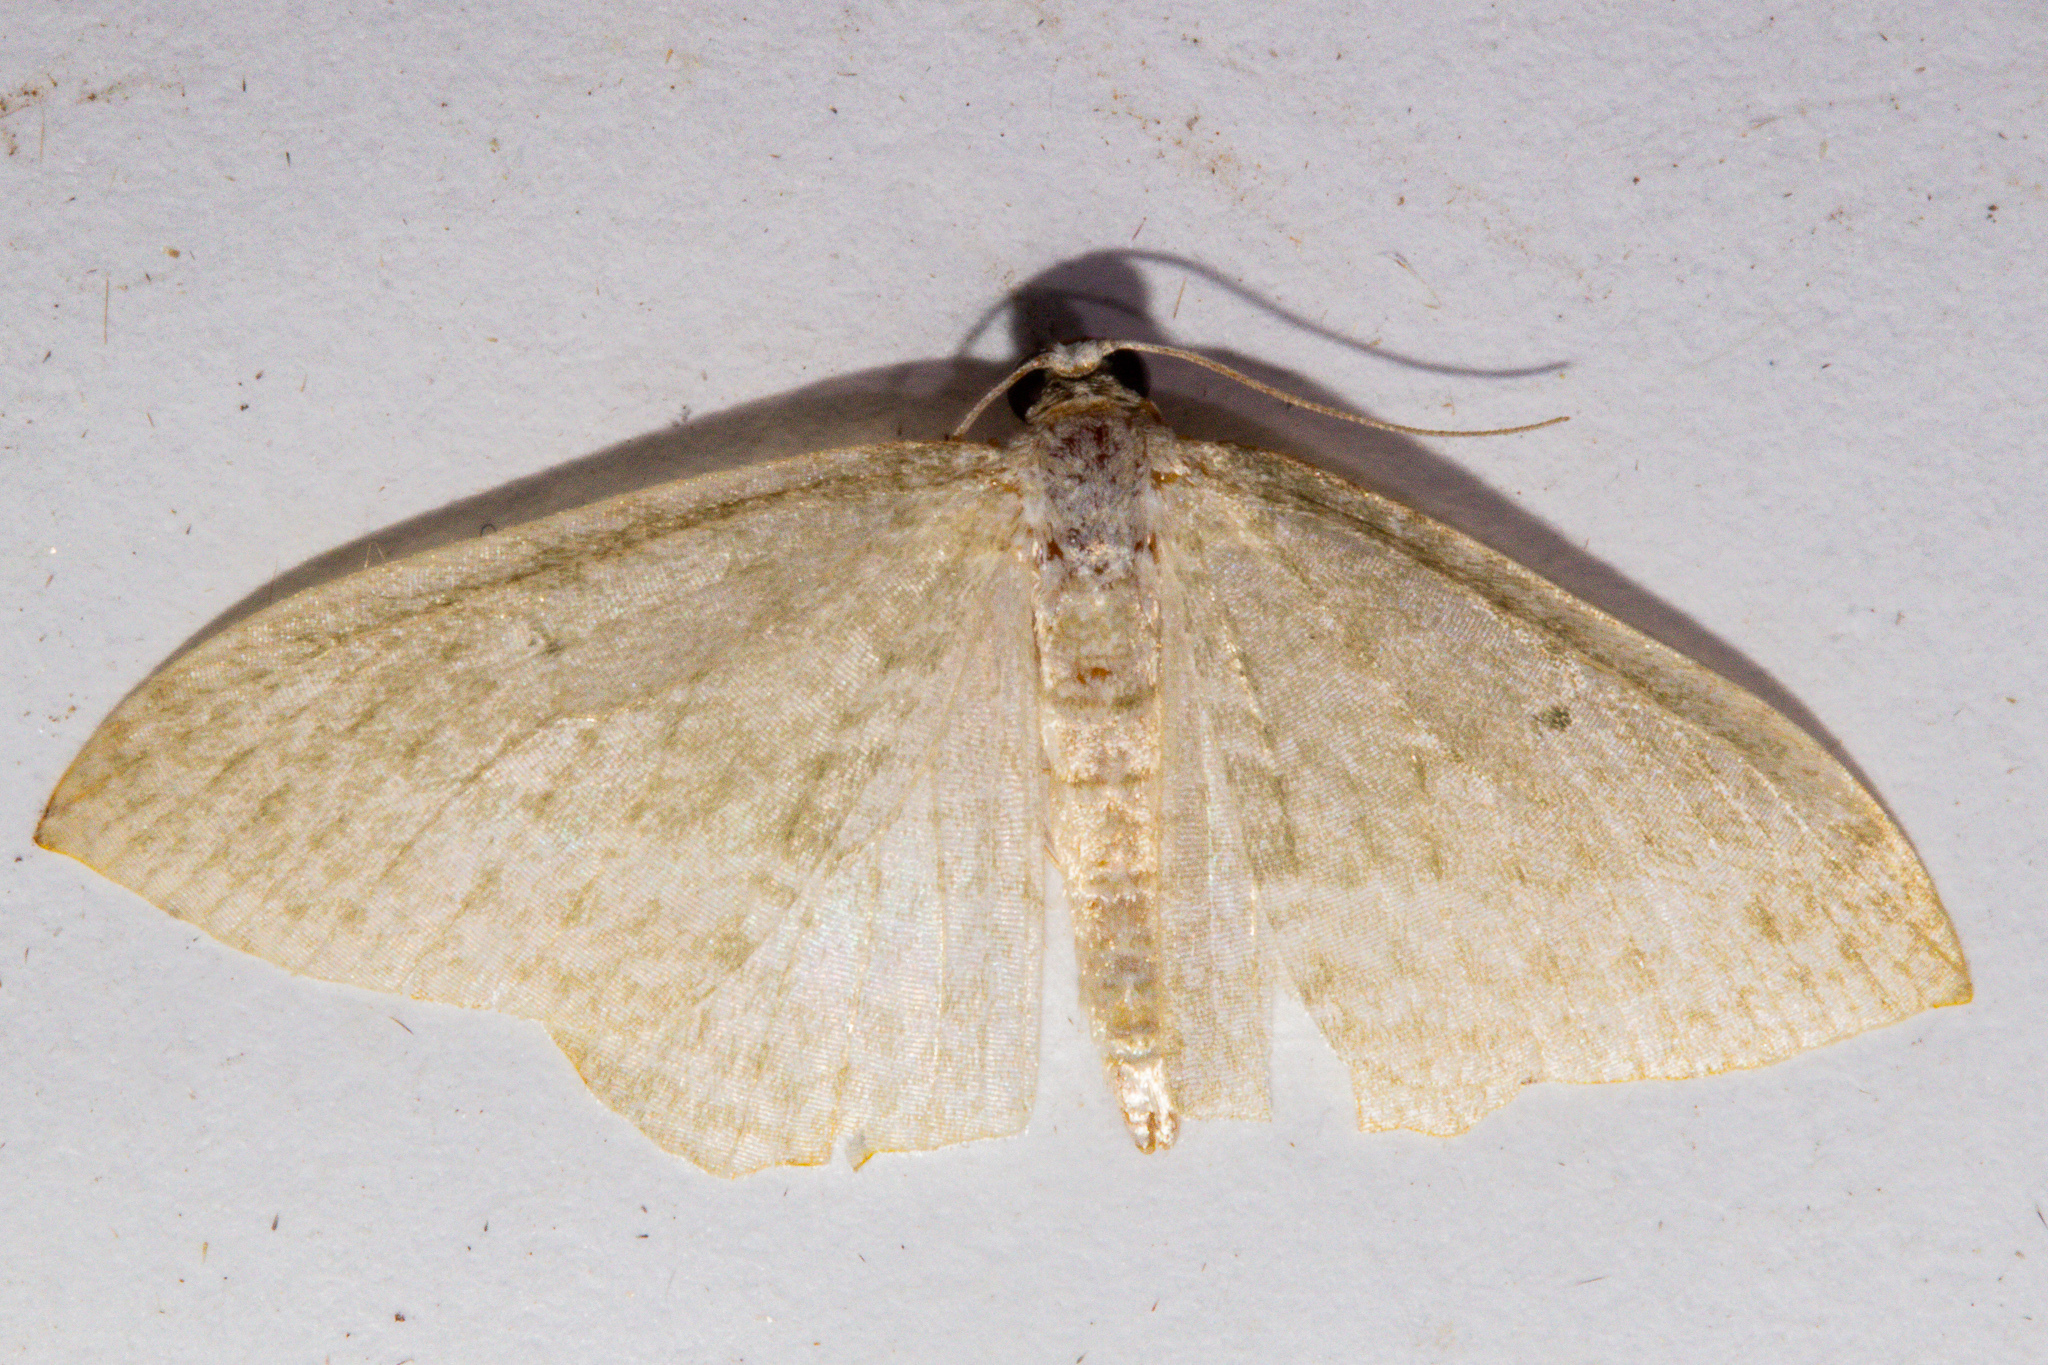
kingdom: Animalia
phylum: Arthropoda
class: Insecta
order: Lepidoptera
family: Geometridae
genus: Poecilasthena
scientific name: Poecilasthena pulchraria
